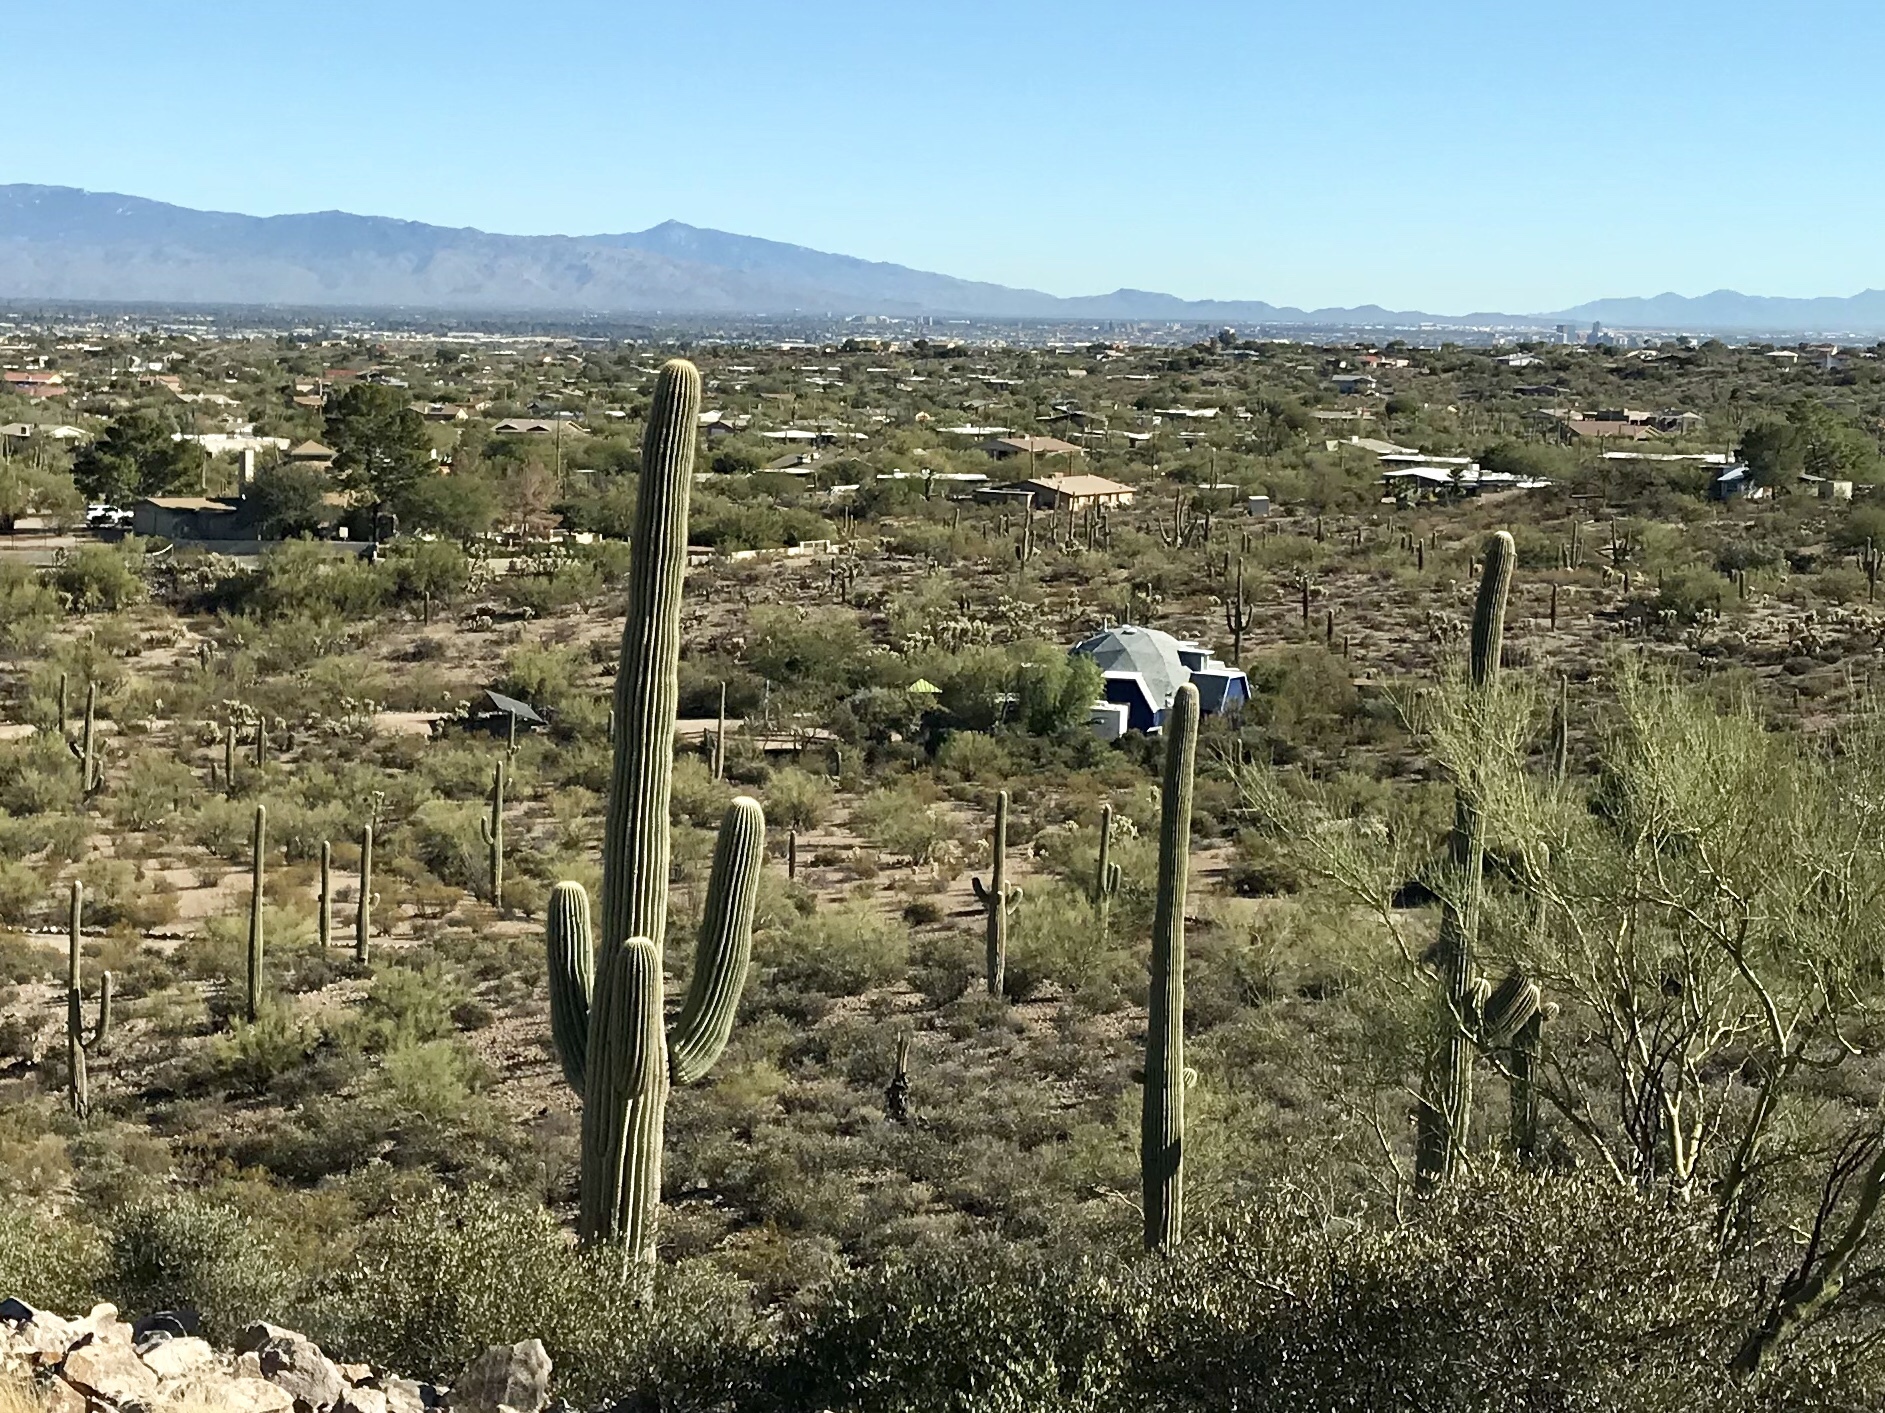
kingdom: Plantae
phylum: Tracheophyta
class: Magnoliopsida
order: Caryophyllales
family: Cactaceae
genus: Carnegiea
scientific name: Carnegiea gigantea
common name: Saguaro
